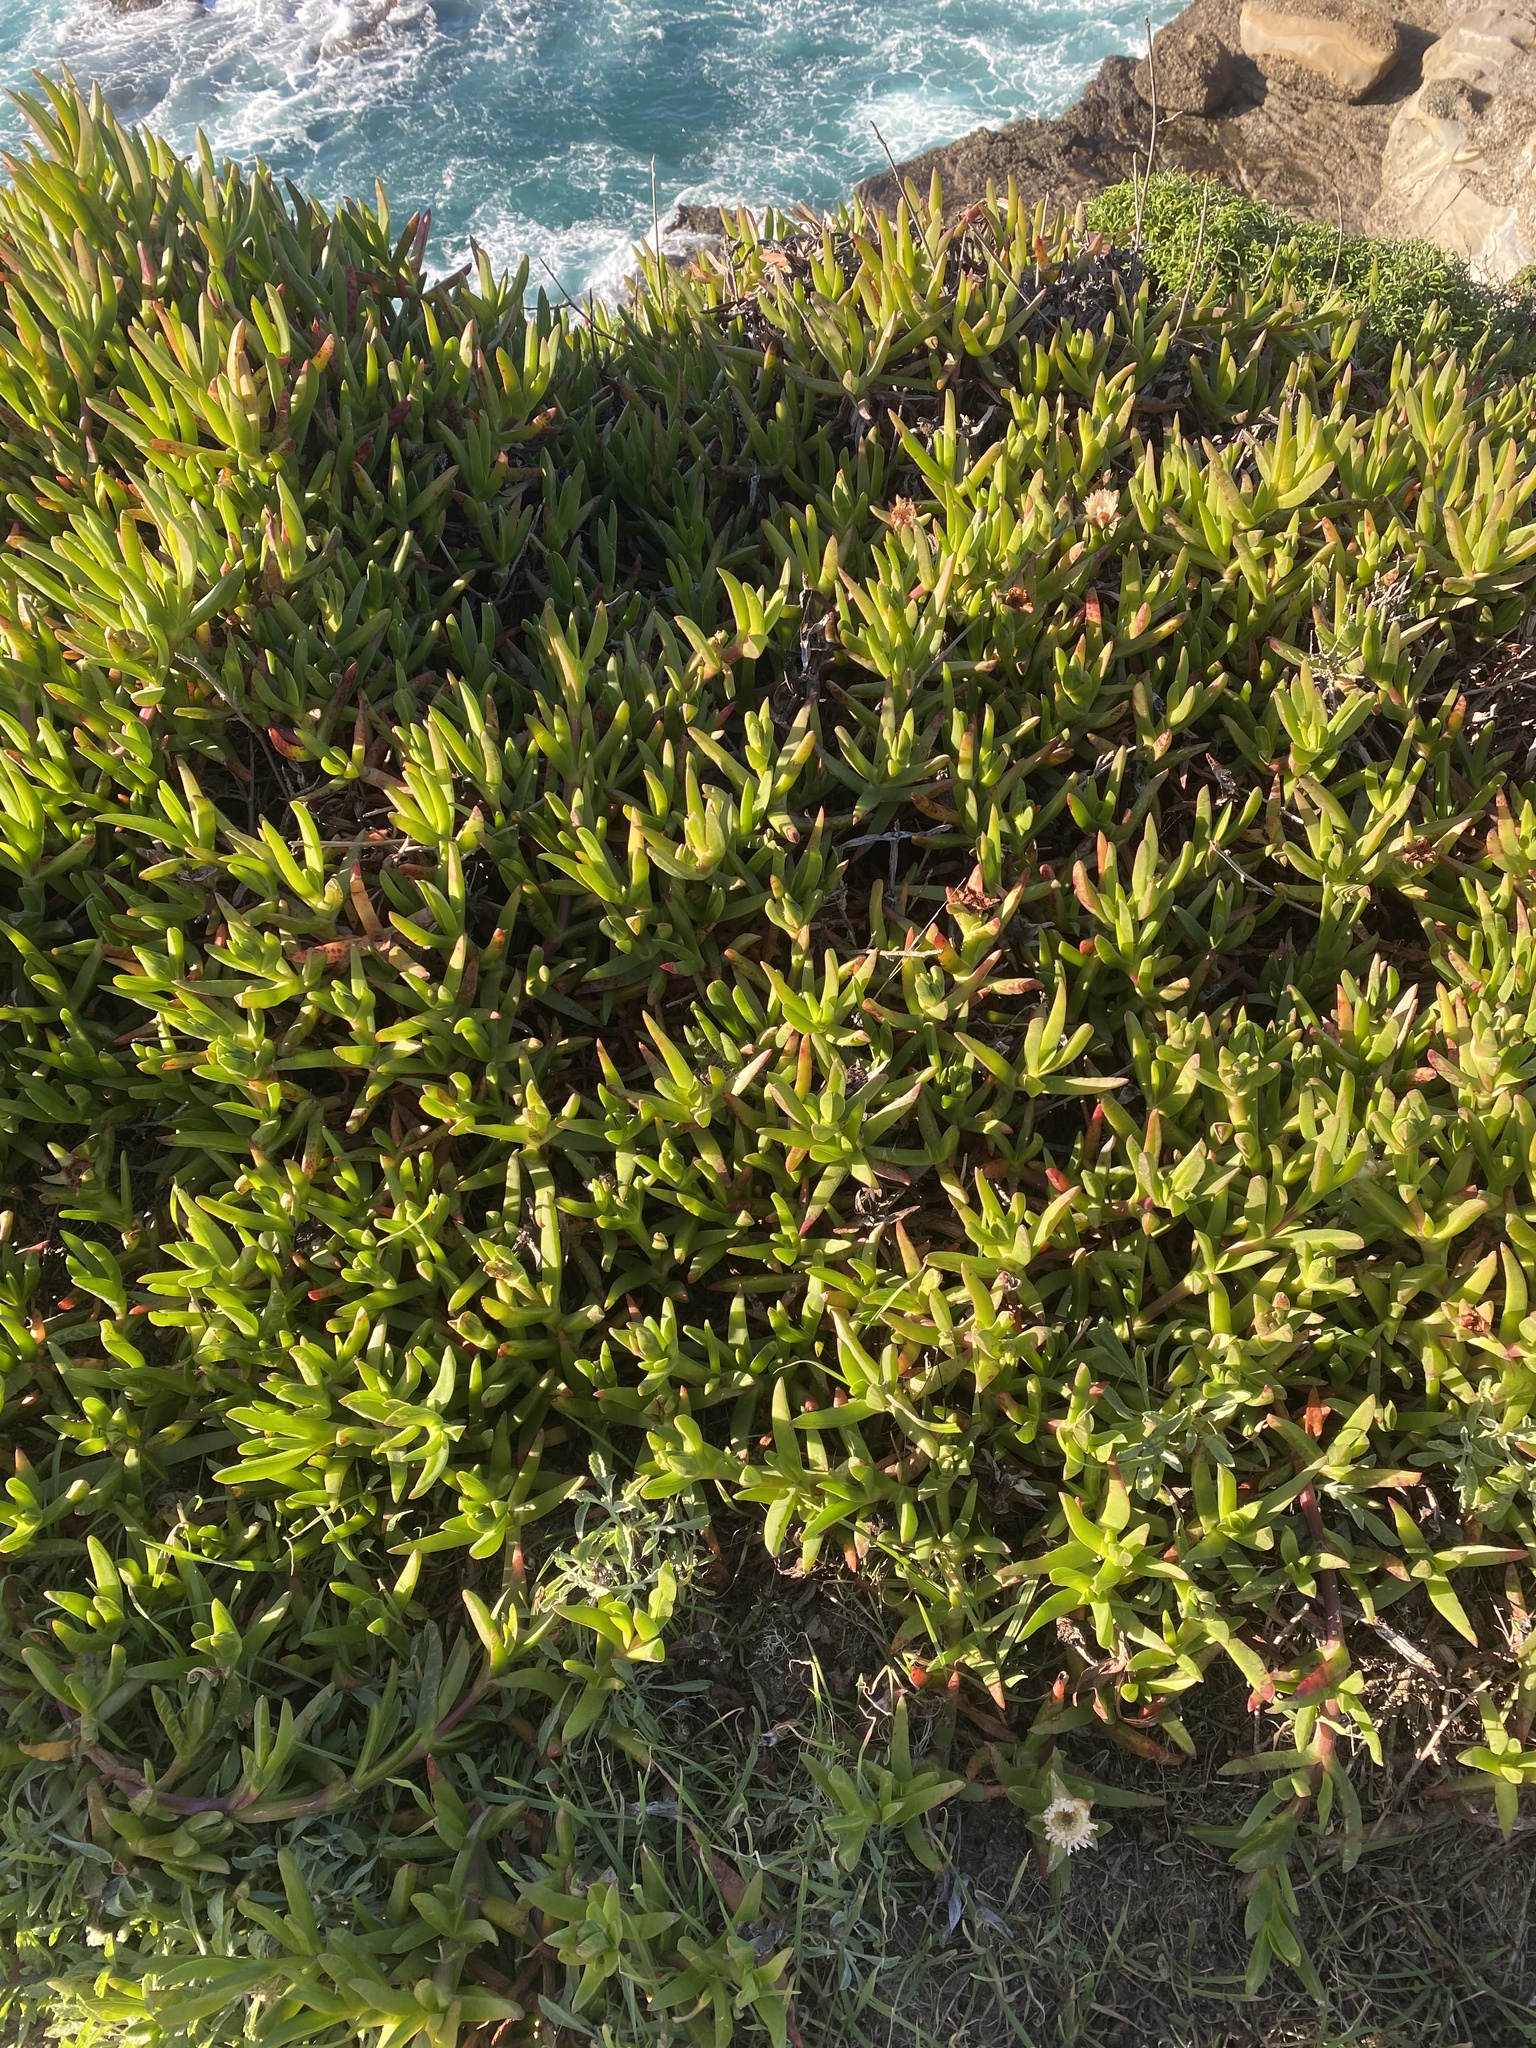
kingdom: Plantae
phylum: Tracheophyta
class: Magnoliopsida
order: Caryophyllales
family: Aizoaceae
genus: Carpobrotus
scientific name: Carpobrotus edulis
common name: Hottentot-fig
